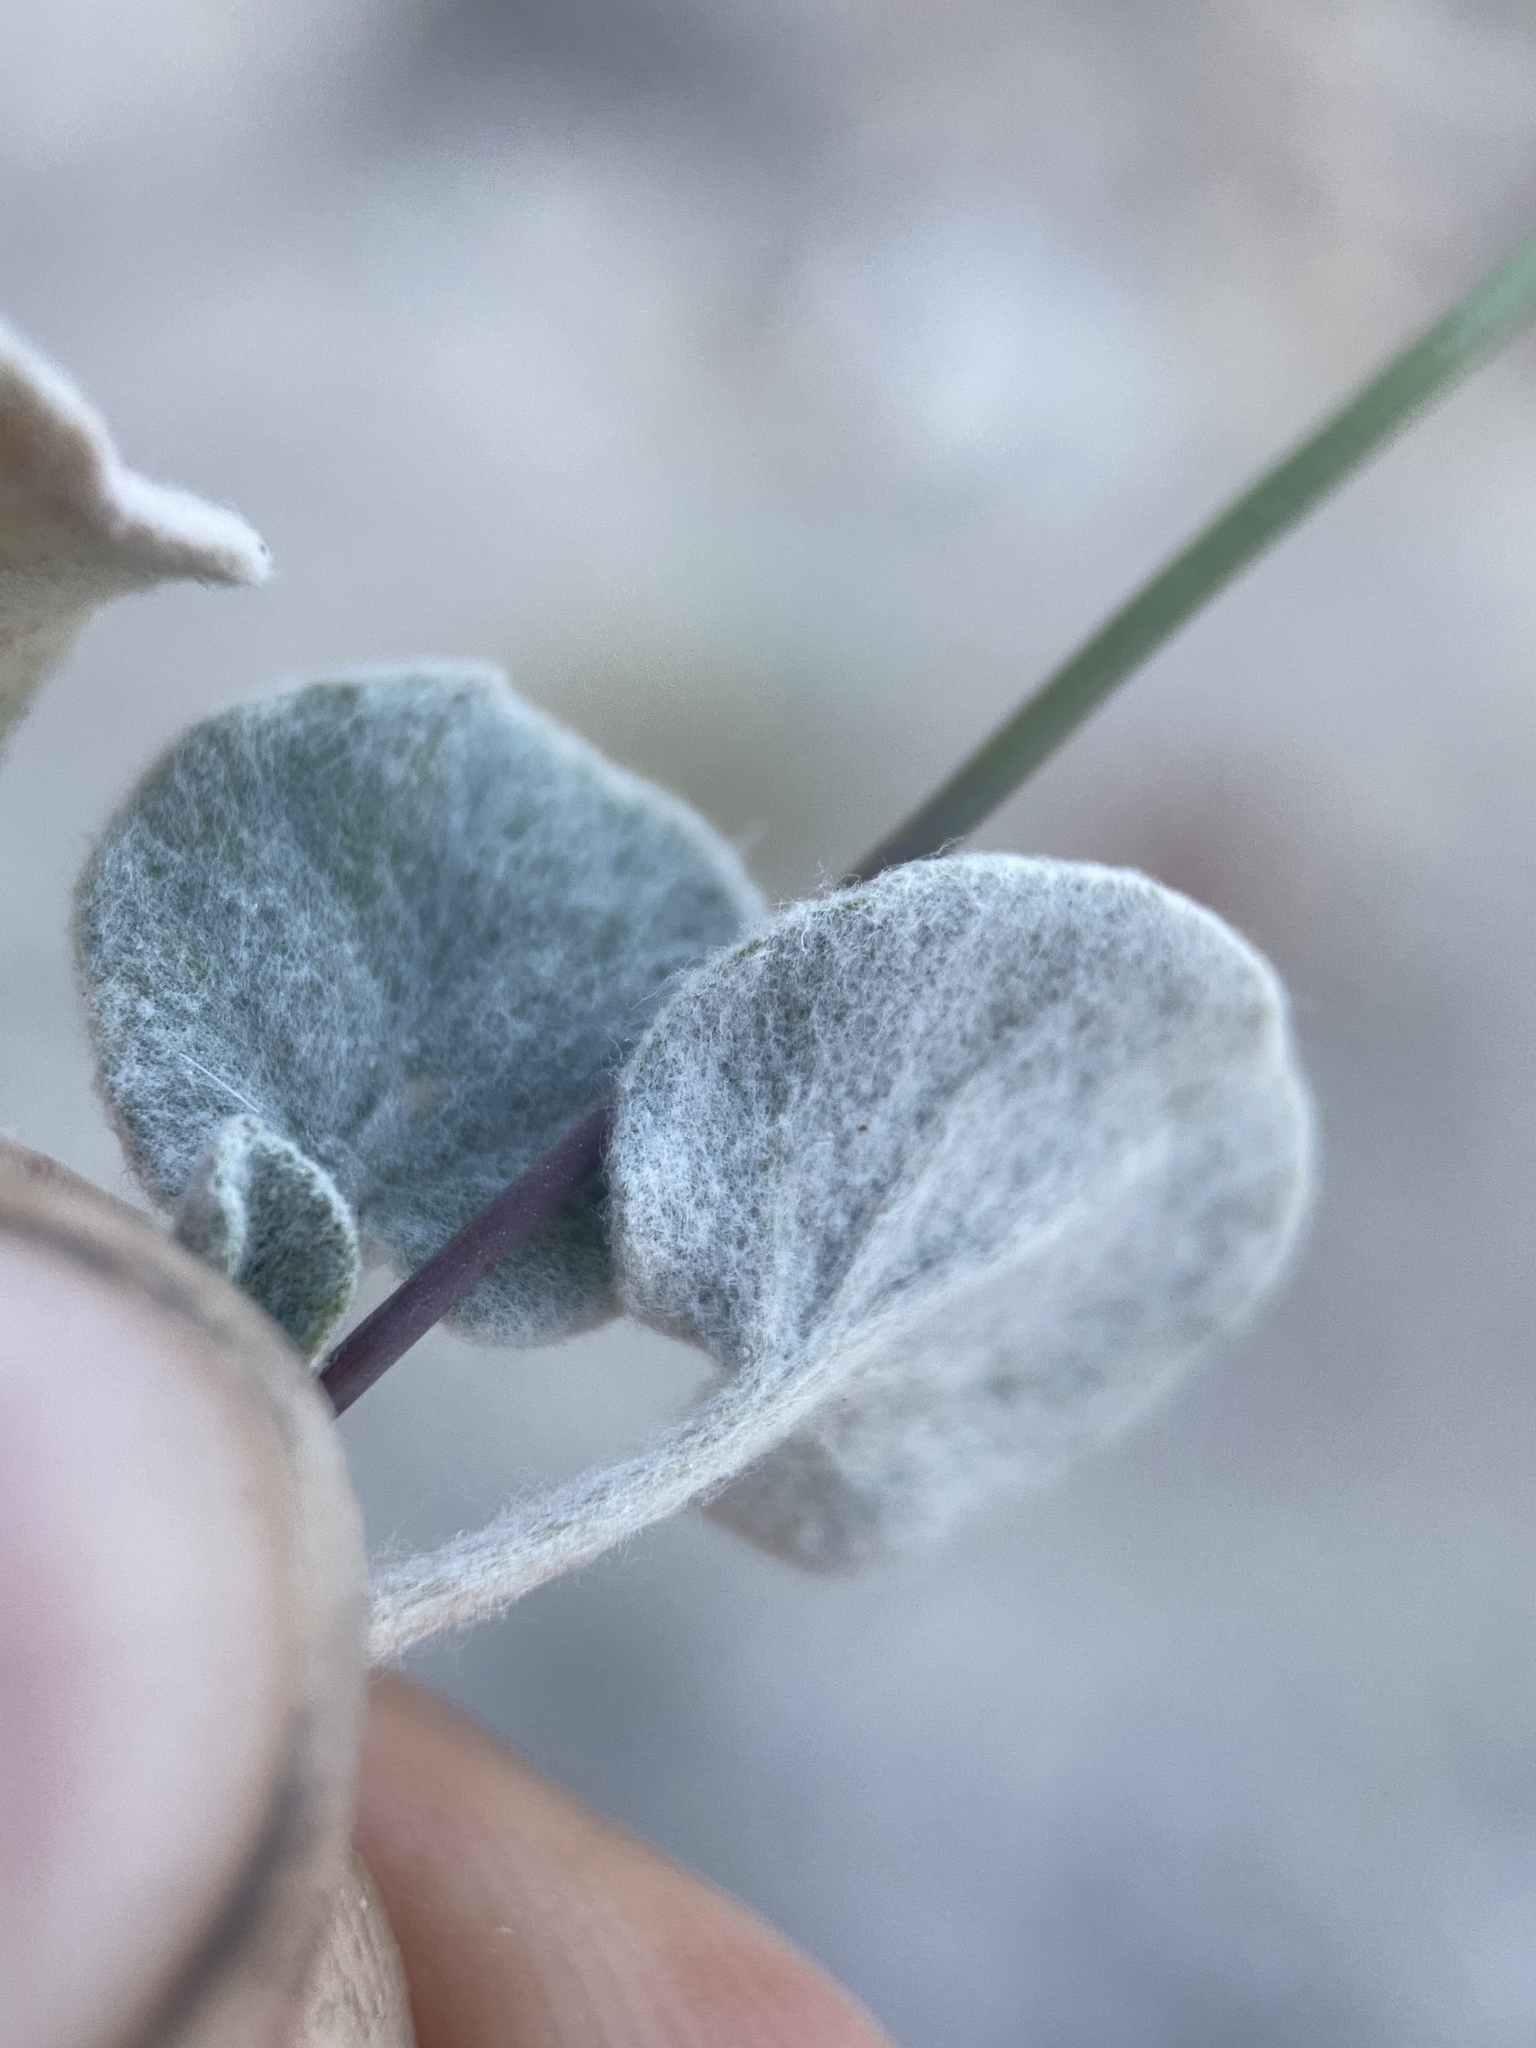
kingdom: Plantae
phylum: Tracheophyta
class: Magnoliopsida
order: Caryophyllales
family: Polygonaceae
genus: Eriogonum
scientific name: Eriogonum deflexum
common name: Skeleton-weed
